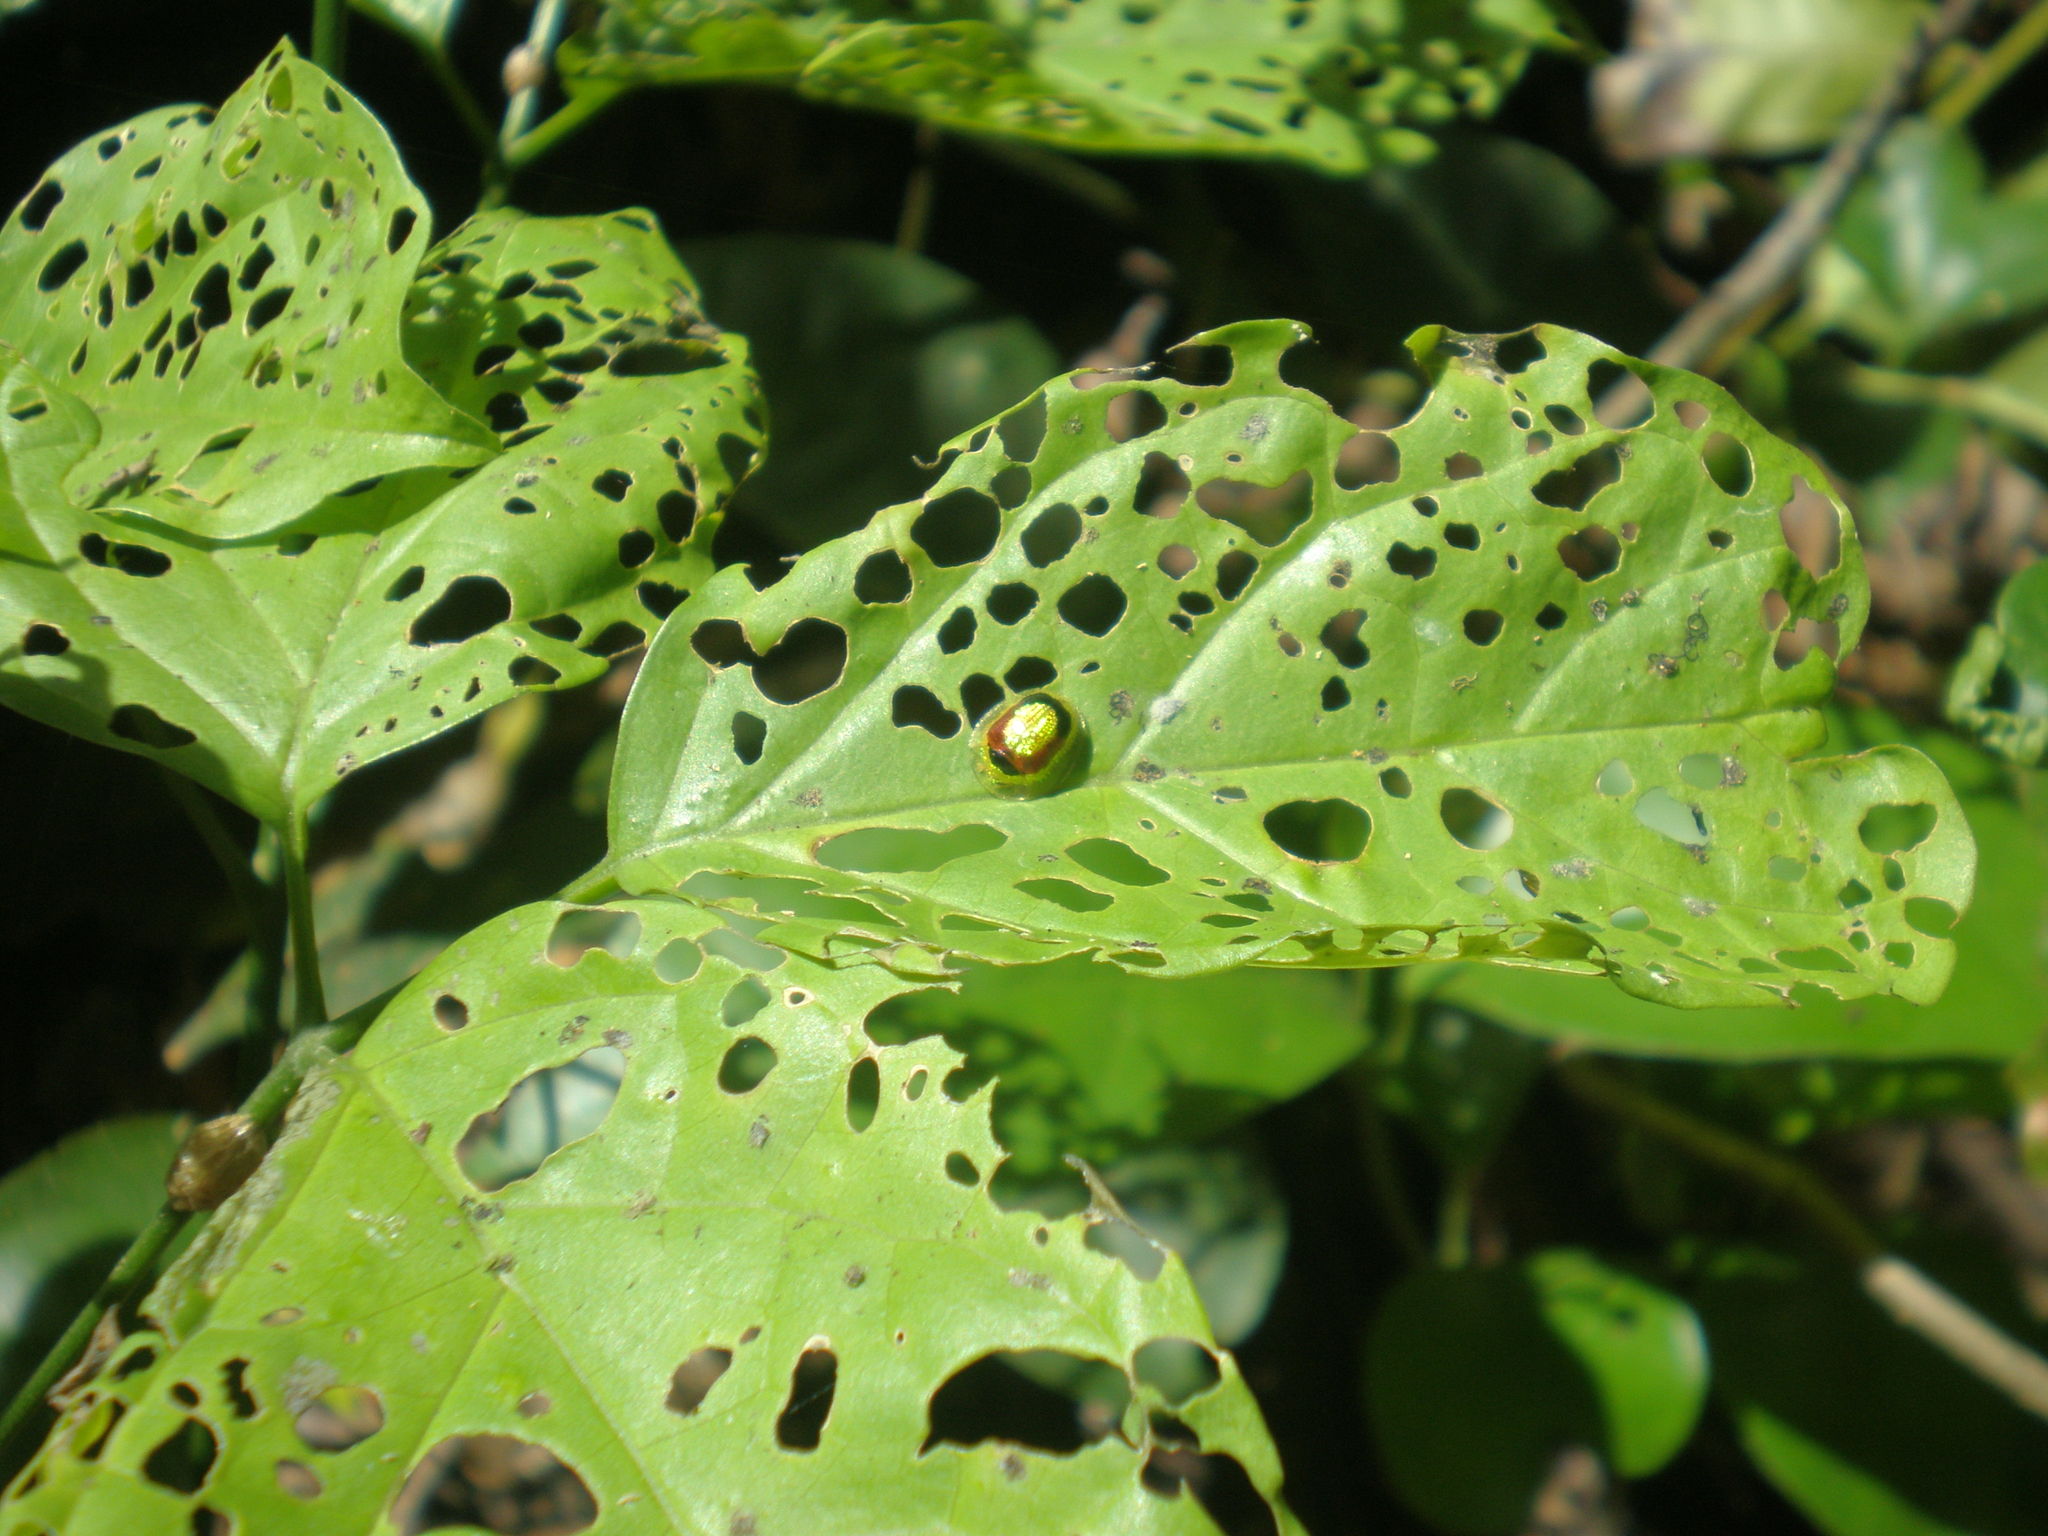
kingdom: Animalia
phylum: Arthropoda
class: Insecta
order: Coleoptera
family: Chrysomelidae
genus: Charidotis
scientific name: Charidotis abrupta
